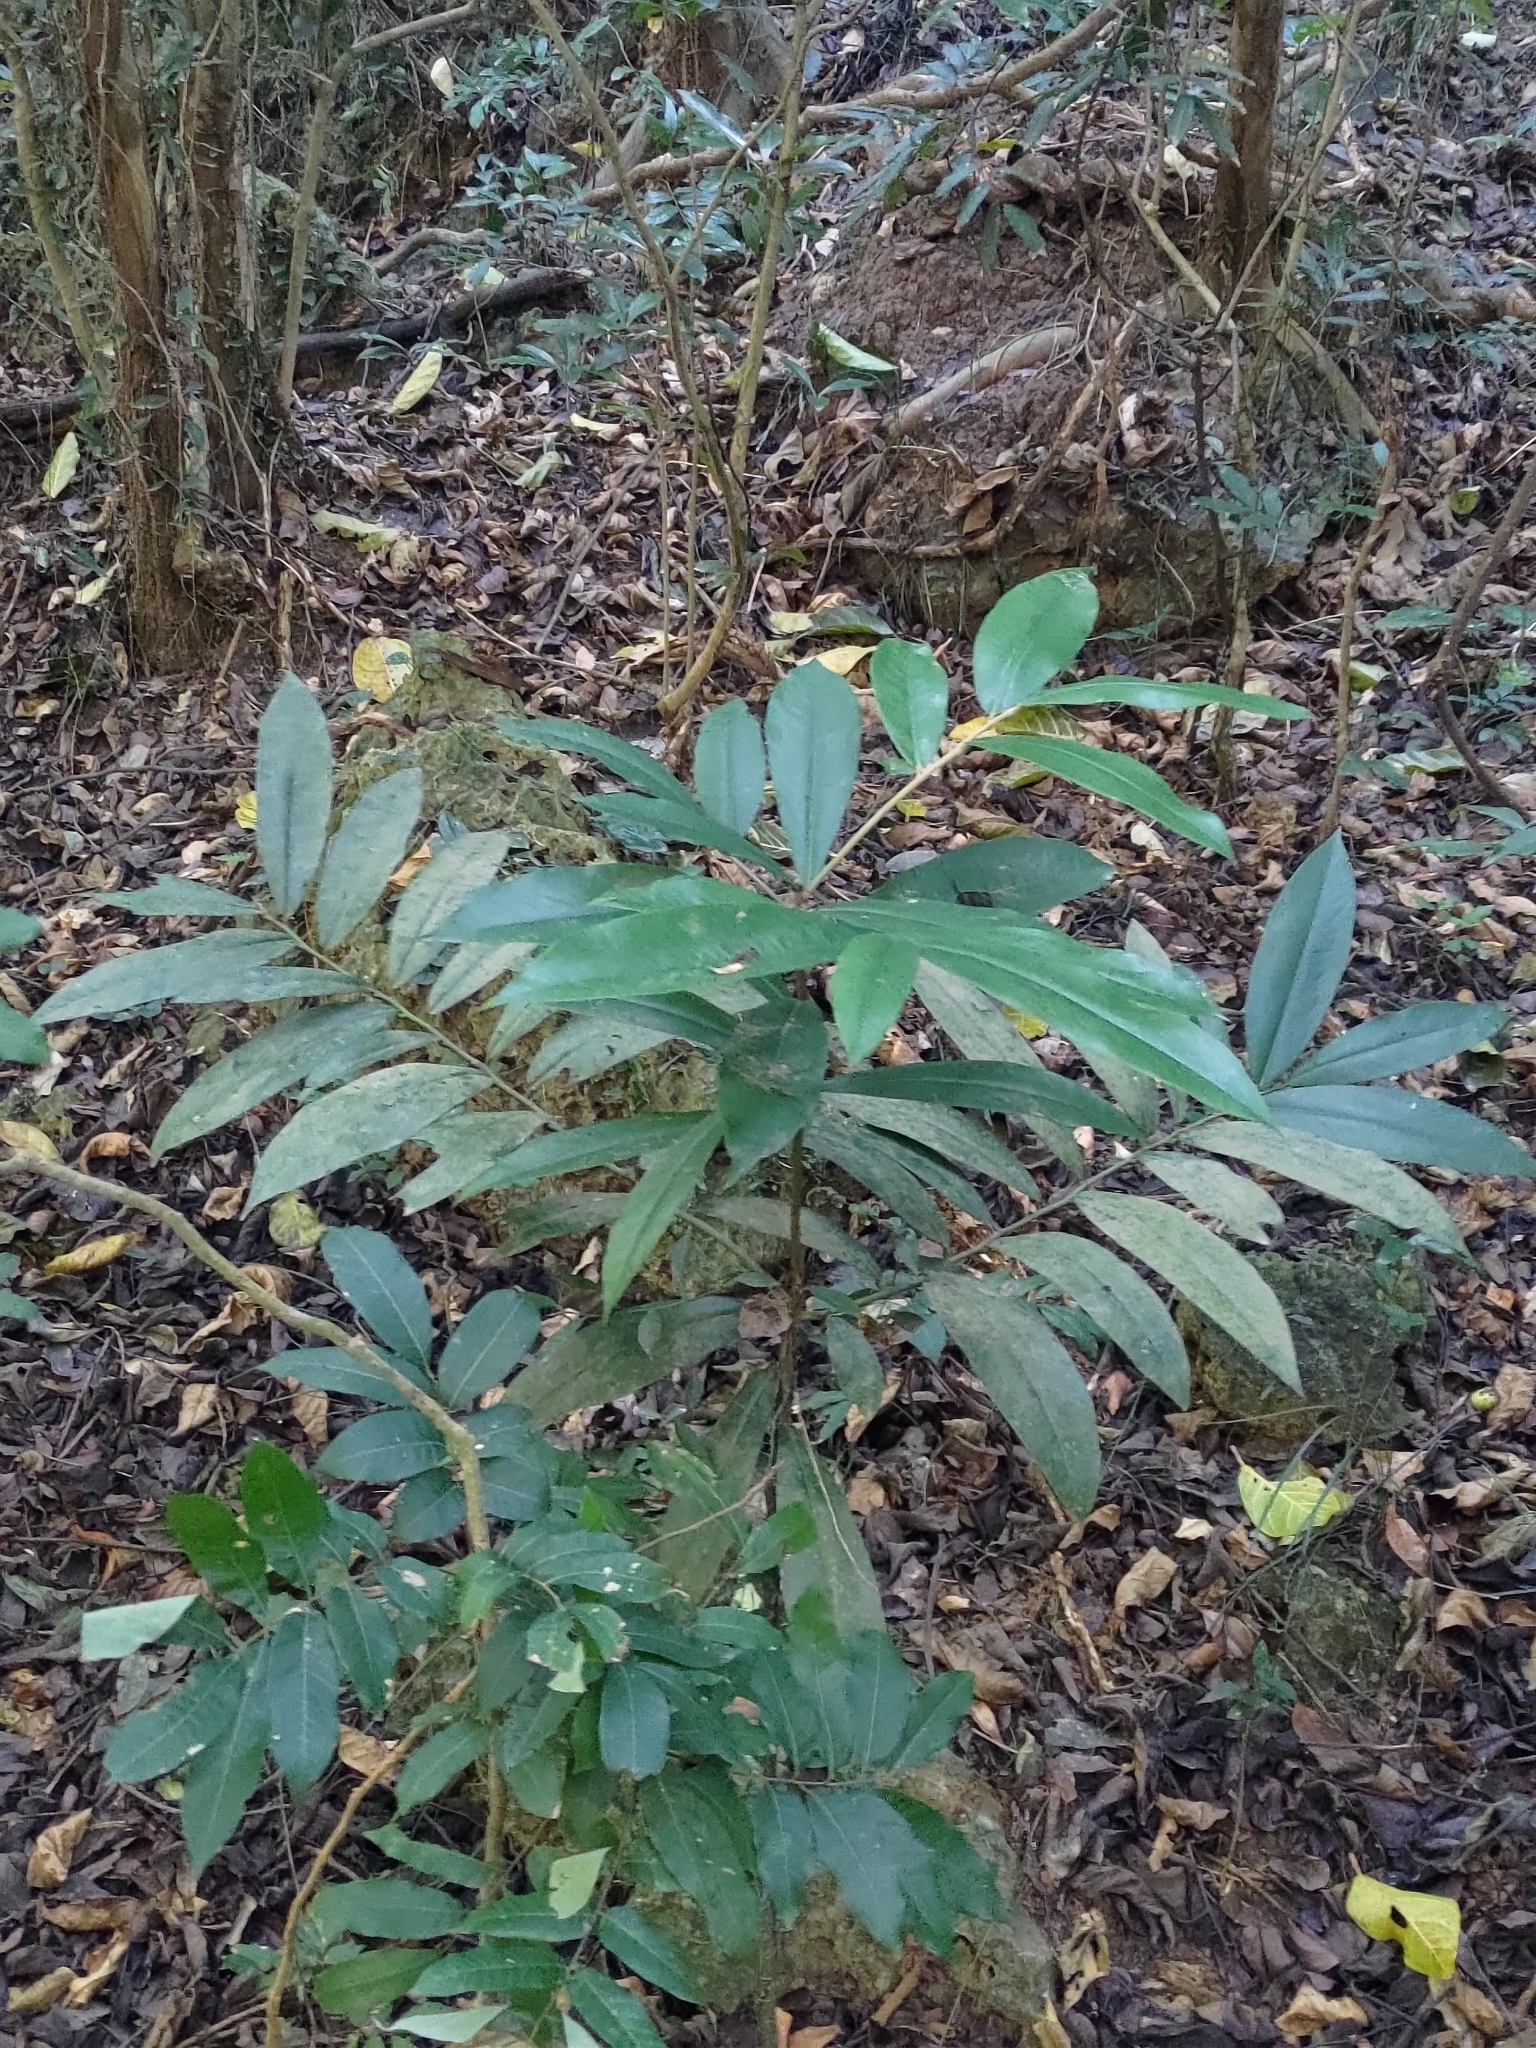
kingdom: Plantae
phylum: Tracheophyta
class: Magnoliopsida
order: Ericales
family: Ebenaceae
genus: Diospyros
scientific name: Diospyros blancoi
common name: Mabola-tree
